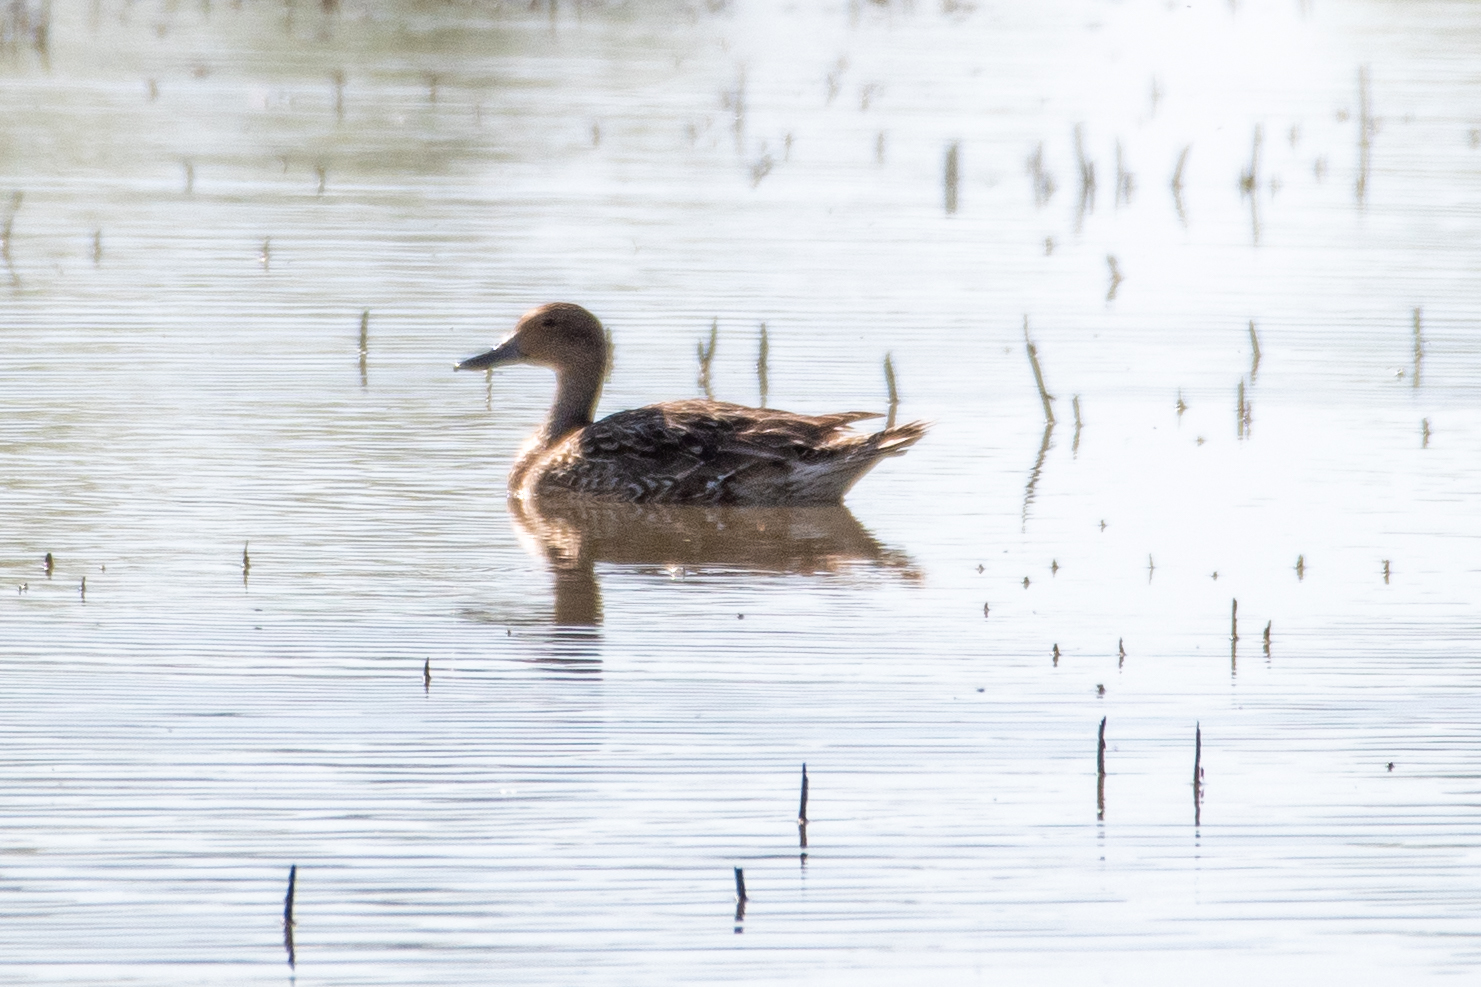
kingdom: Animalia
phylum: Chordata
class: Aves
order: Anseriformes
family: Anatidae
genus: Anas
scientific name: Anas acuta
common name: Northern pintail
